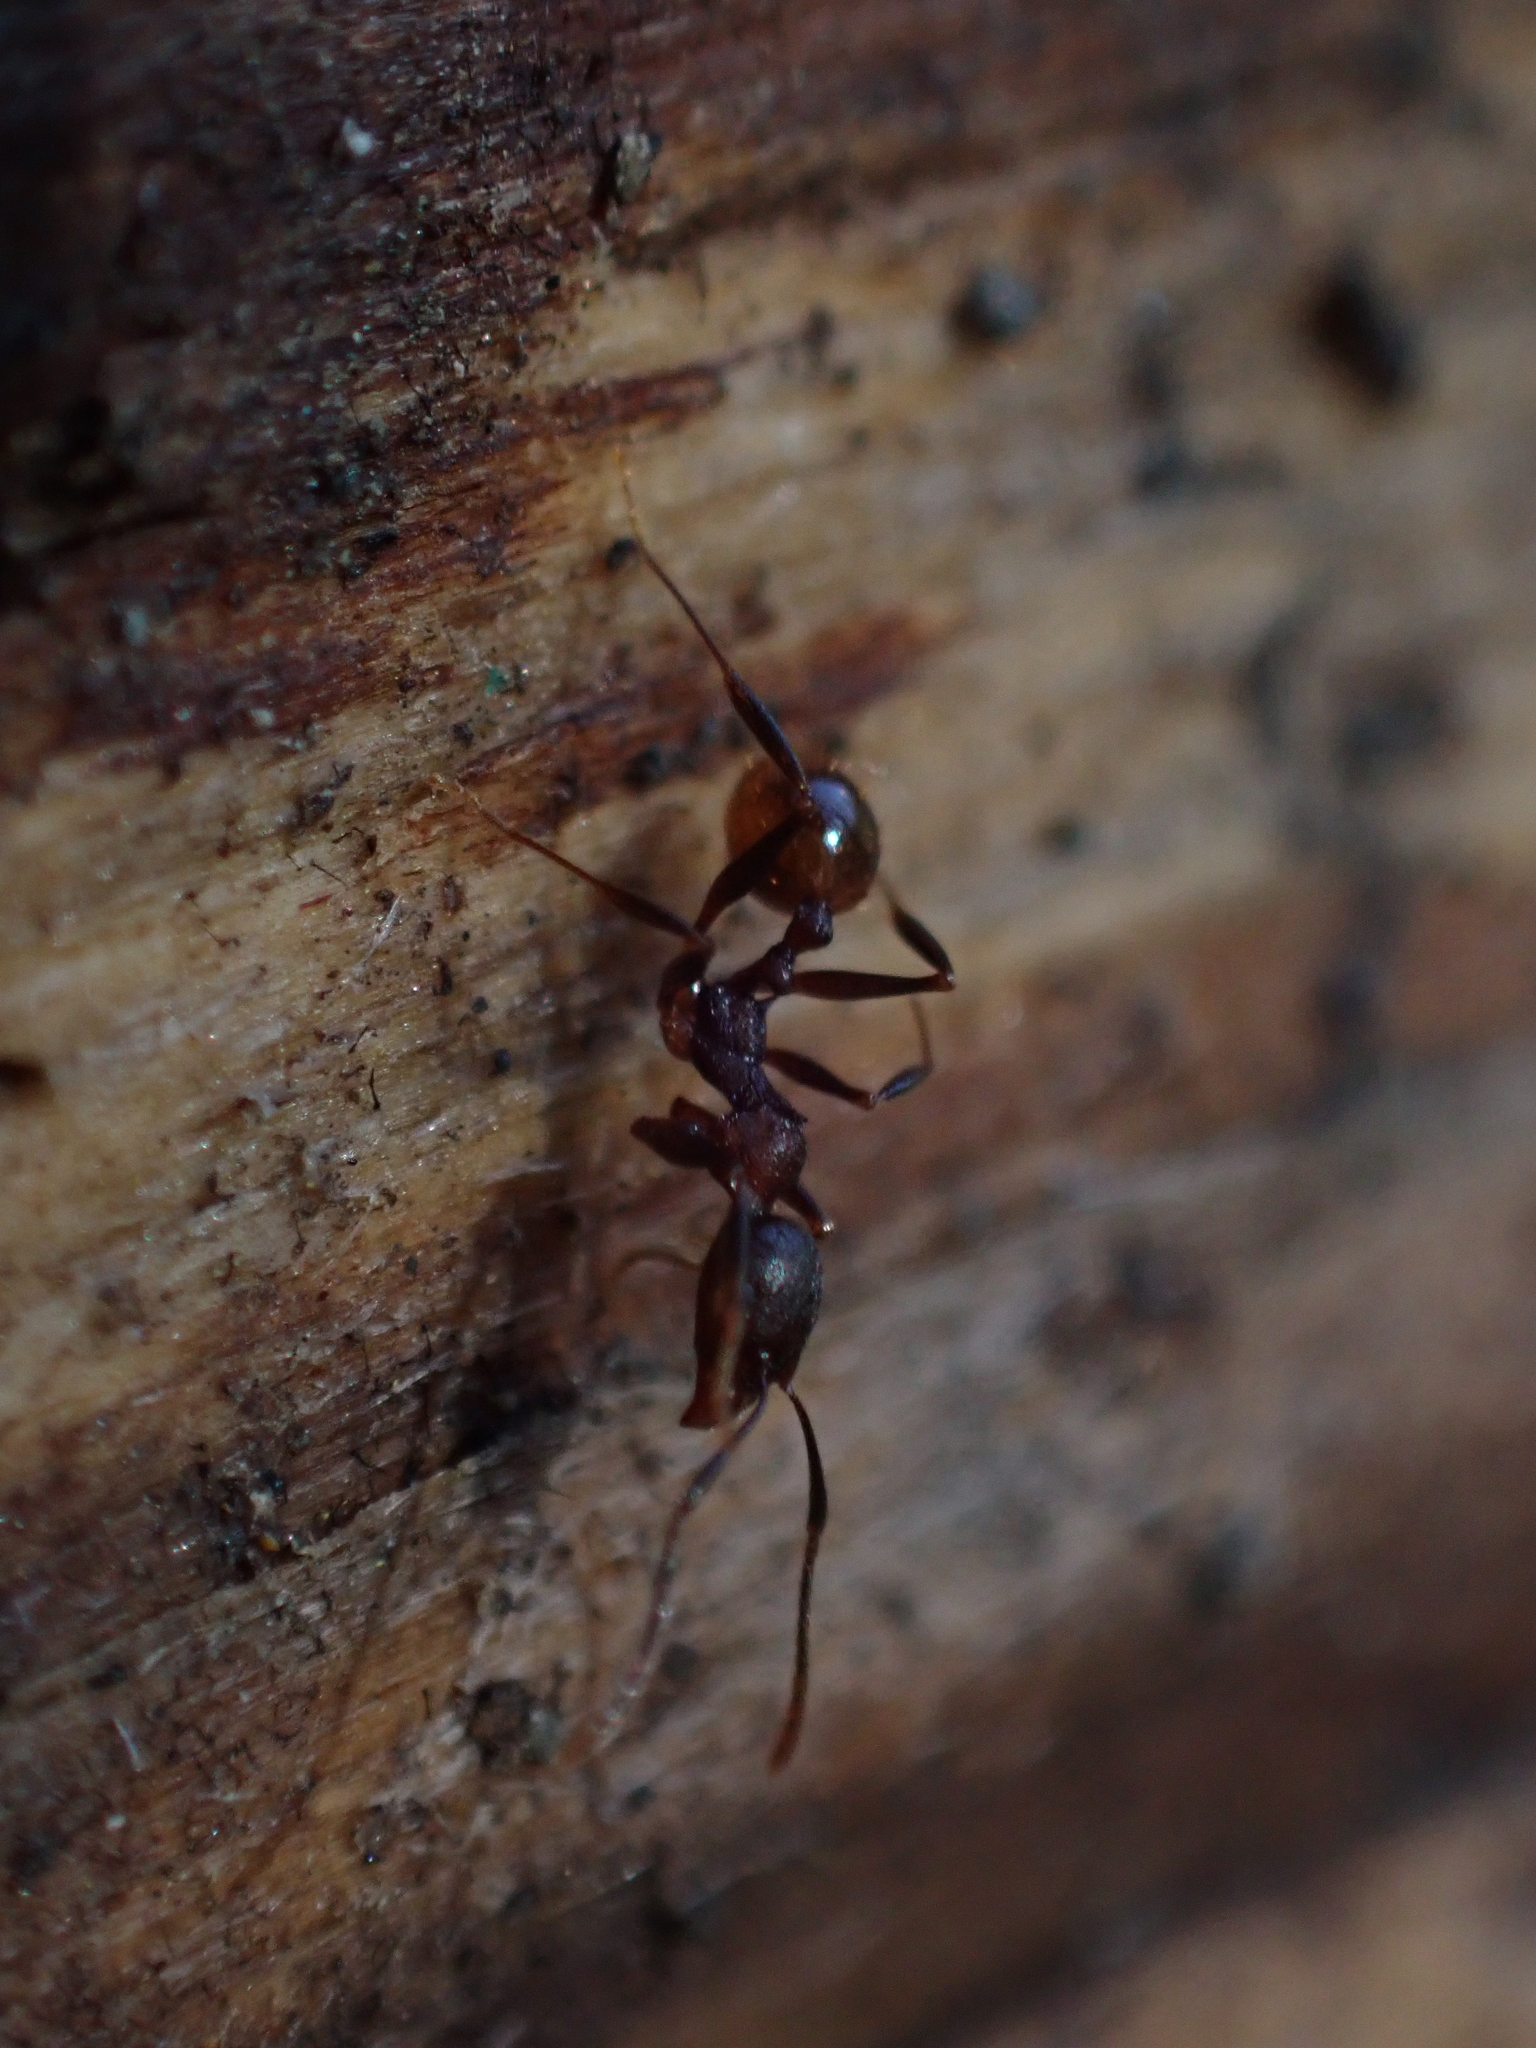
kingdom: Animalia
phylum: Arthropoda
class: Insecta
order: Hymenoptera
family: Formicidae
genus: Aphaenogaster
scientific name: Aphaenogaster fulva
